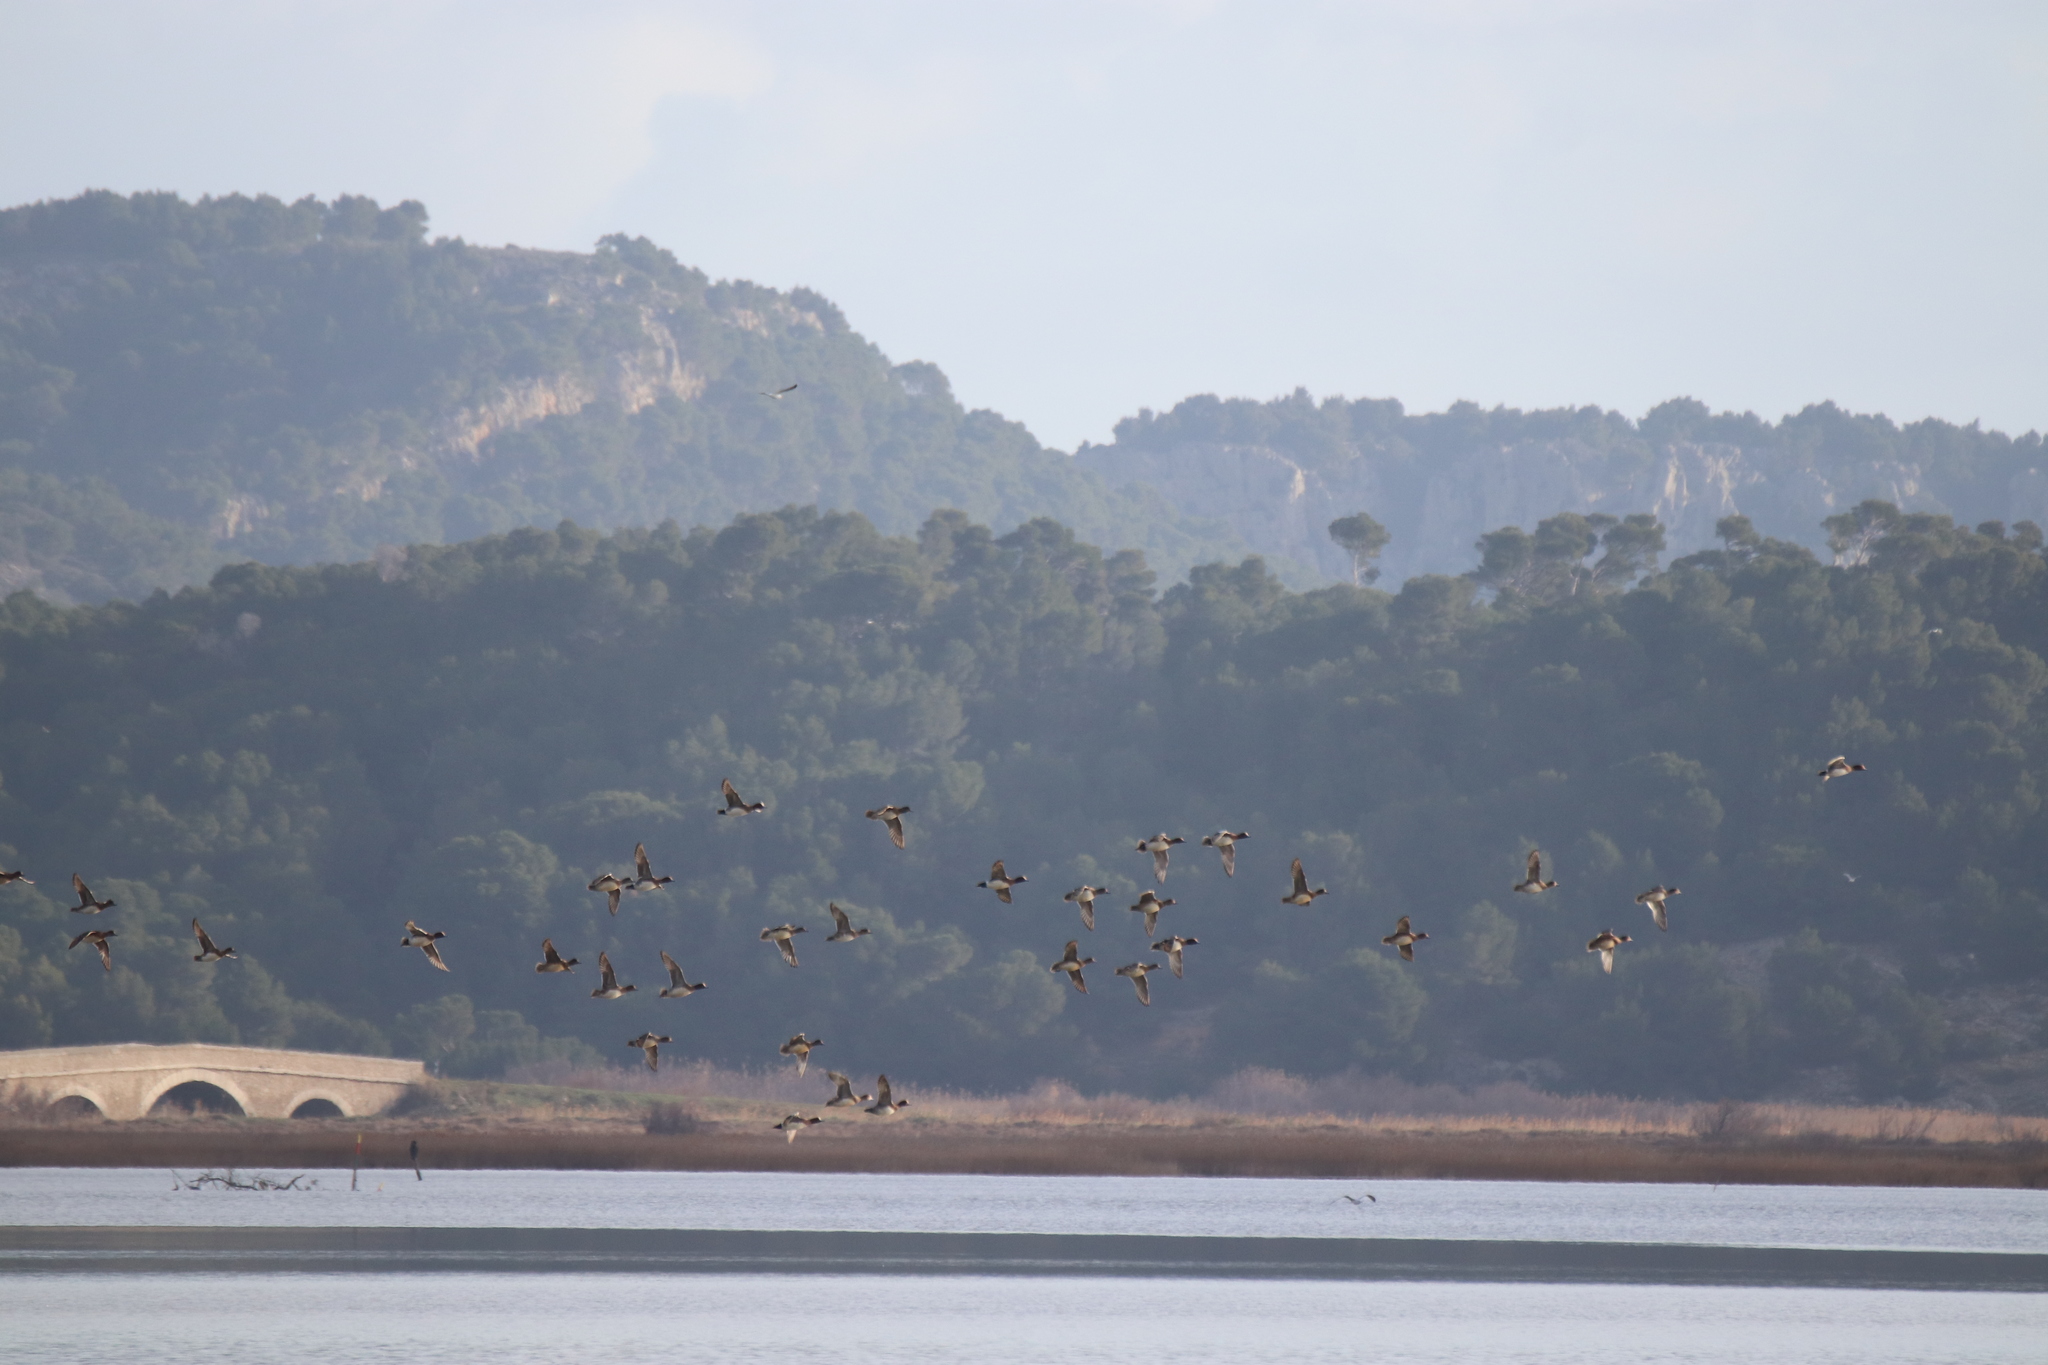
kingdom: Animalia
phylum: Chordata
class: Aves
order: Anseriformes
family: Anatidae
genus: Mareca
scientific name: Mareca penelope
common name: Eurasian wigeon
